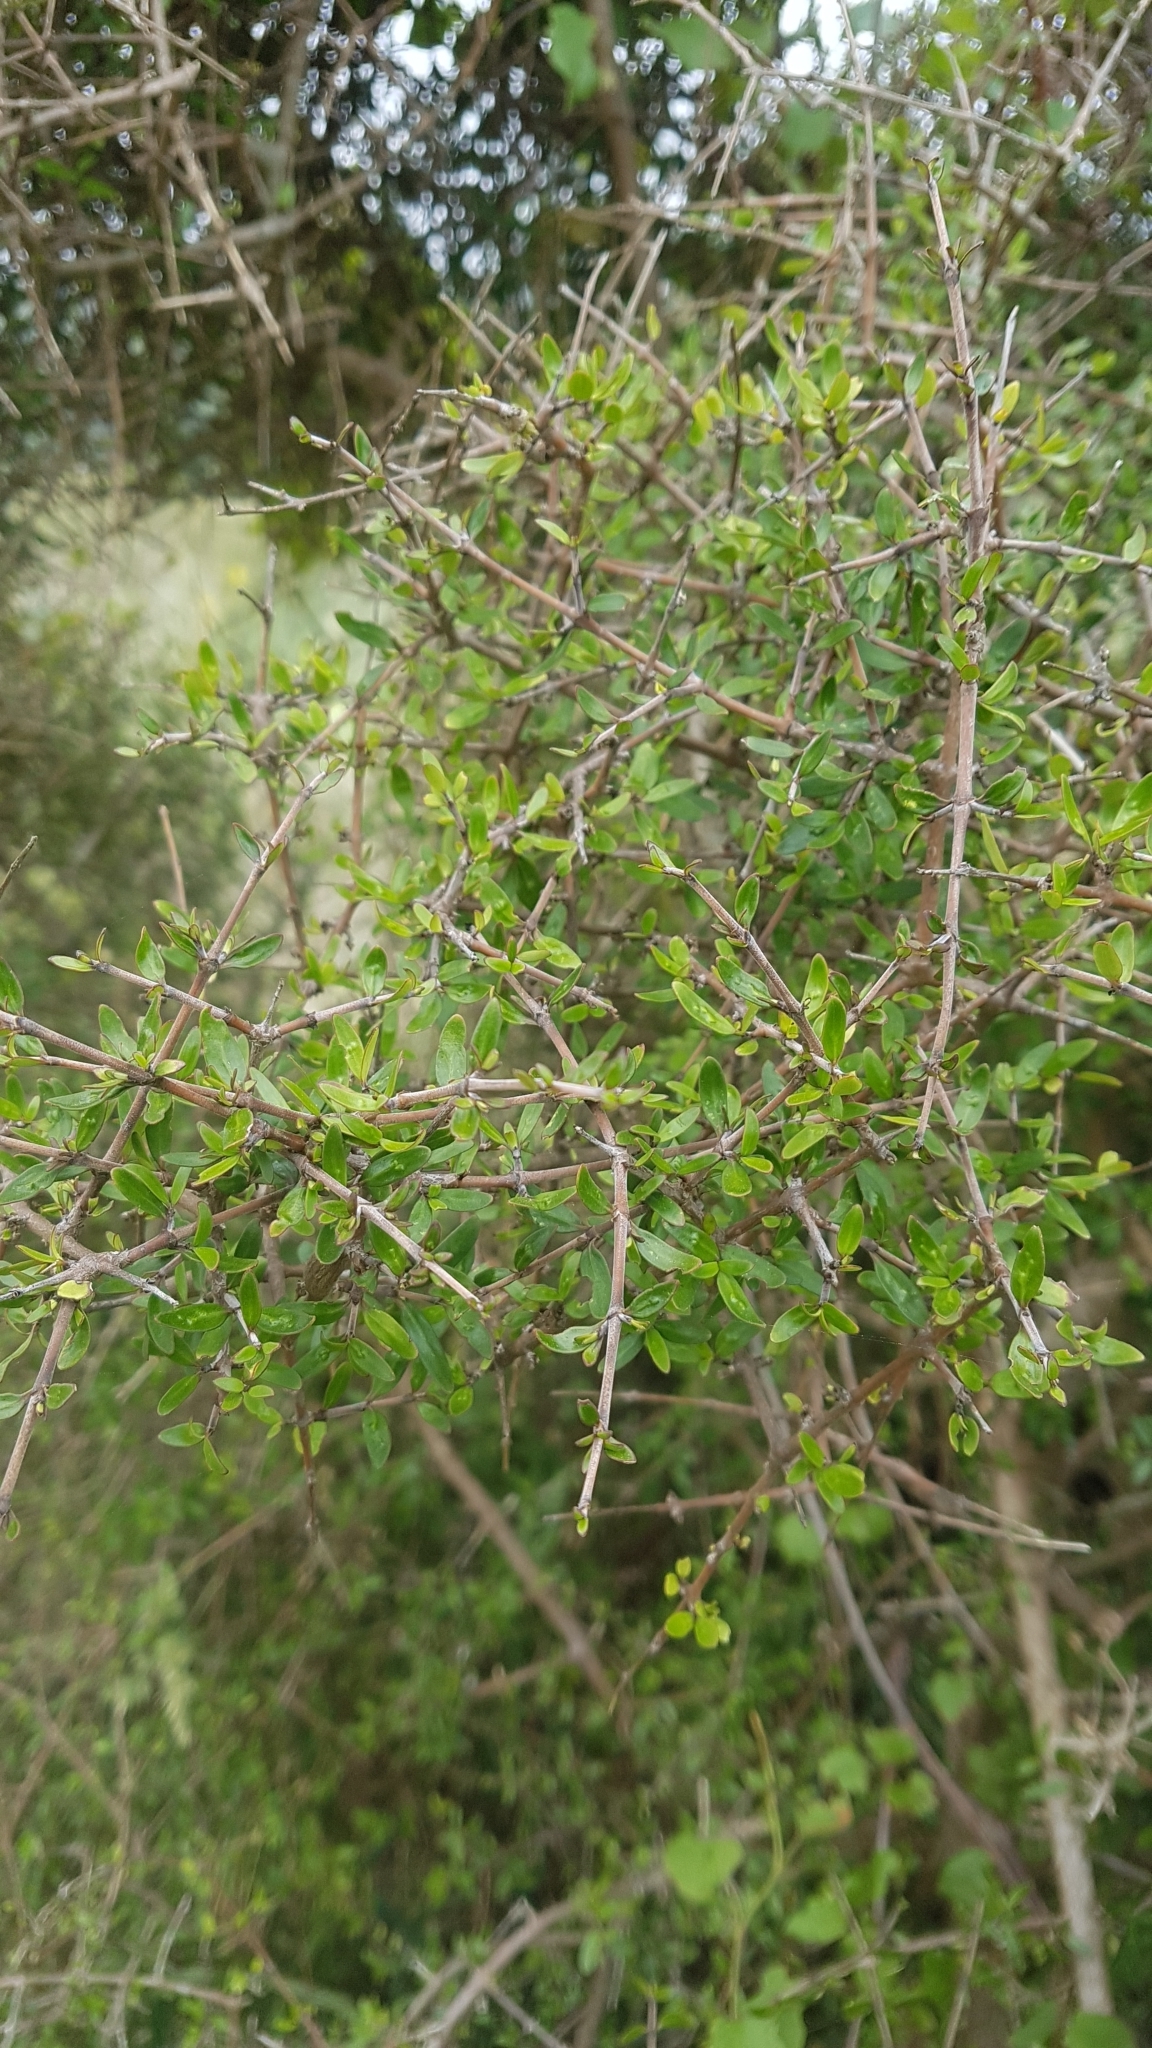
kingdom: Plantae
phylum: Tracheophyta
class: Magnoliopsida
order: Gentianales
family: Rubiaceae
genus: Coprosma
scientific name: Coprosma propinqua
